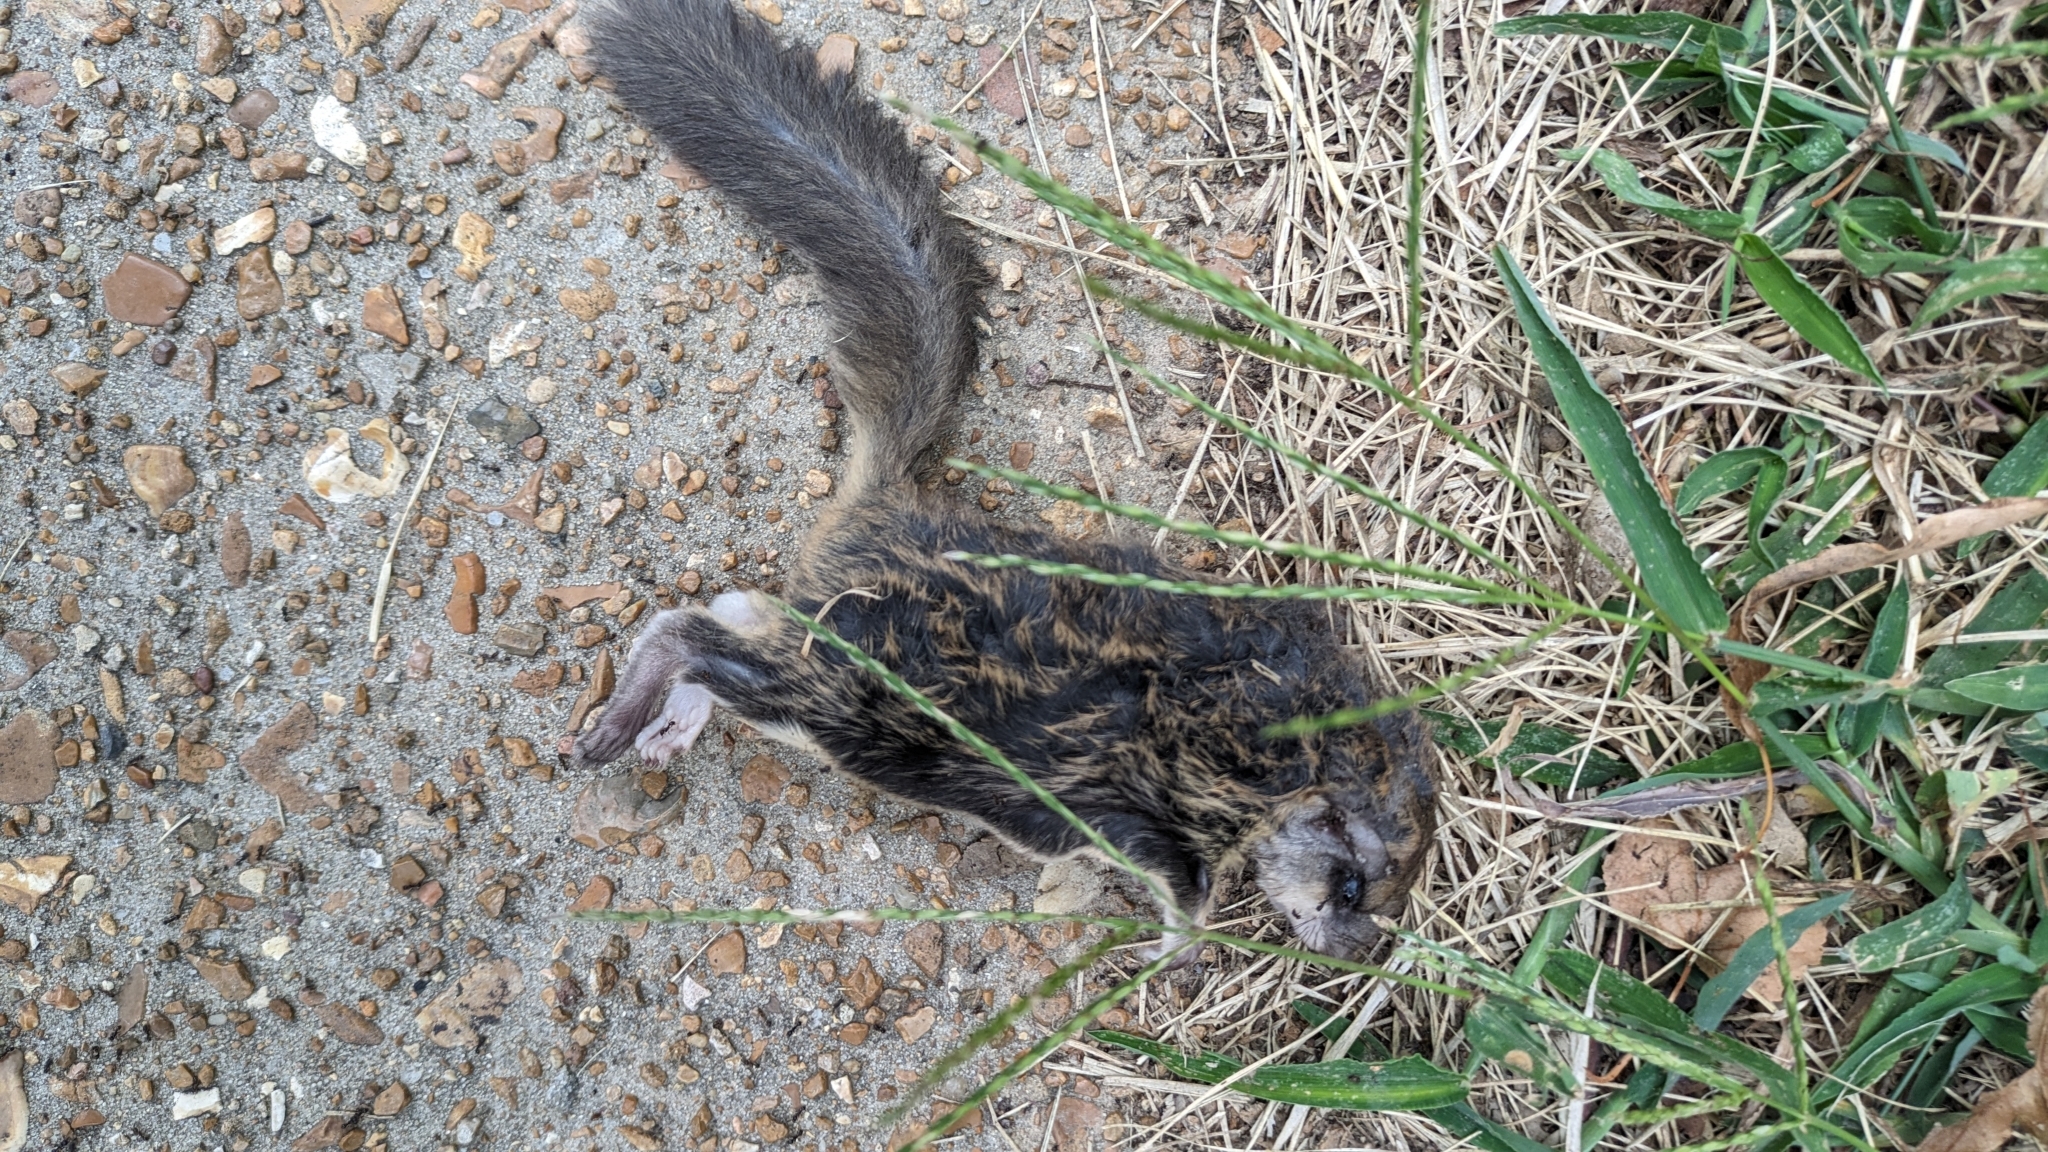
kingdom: Animalia
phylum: Chordata
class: Mammalia
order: Rodentia
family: Sciuridae
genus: Glaucomys
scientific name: Glaucomys volans
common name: Southern flying squirrel
